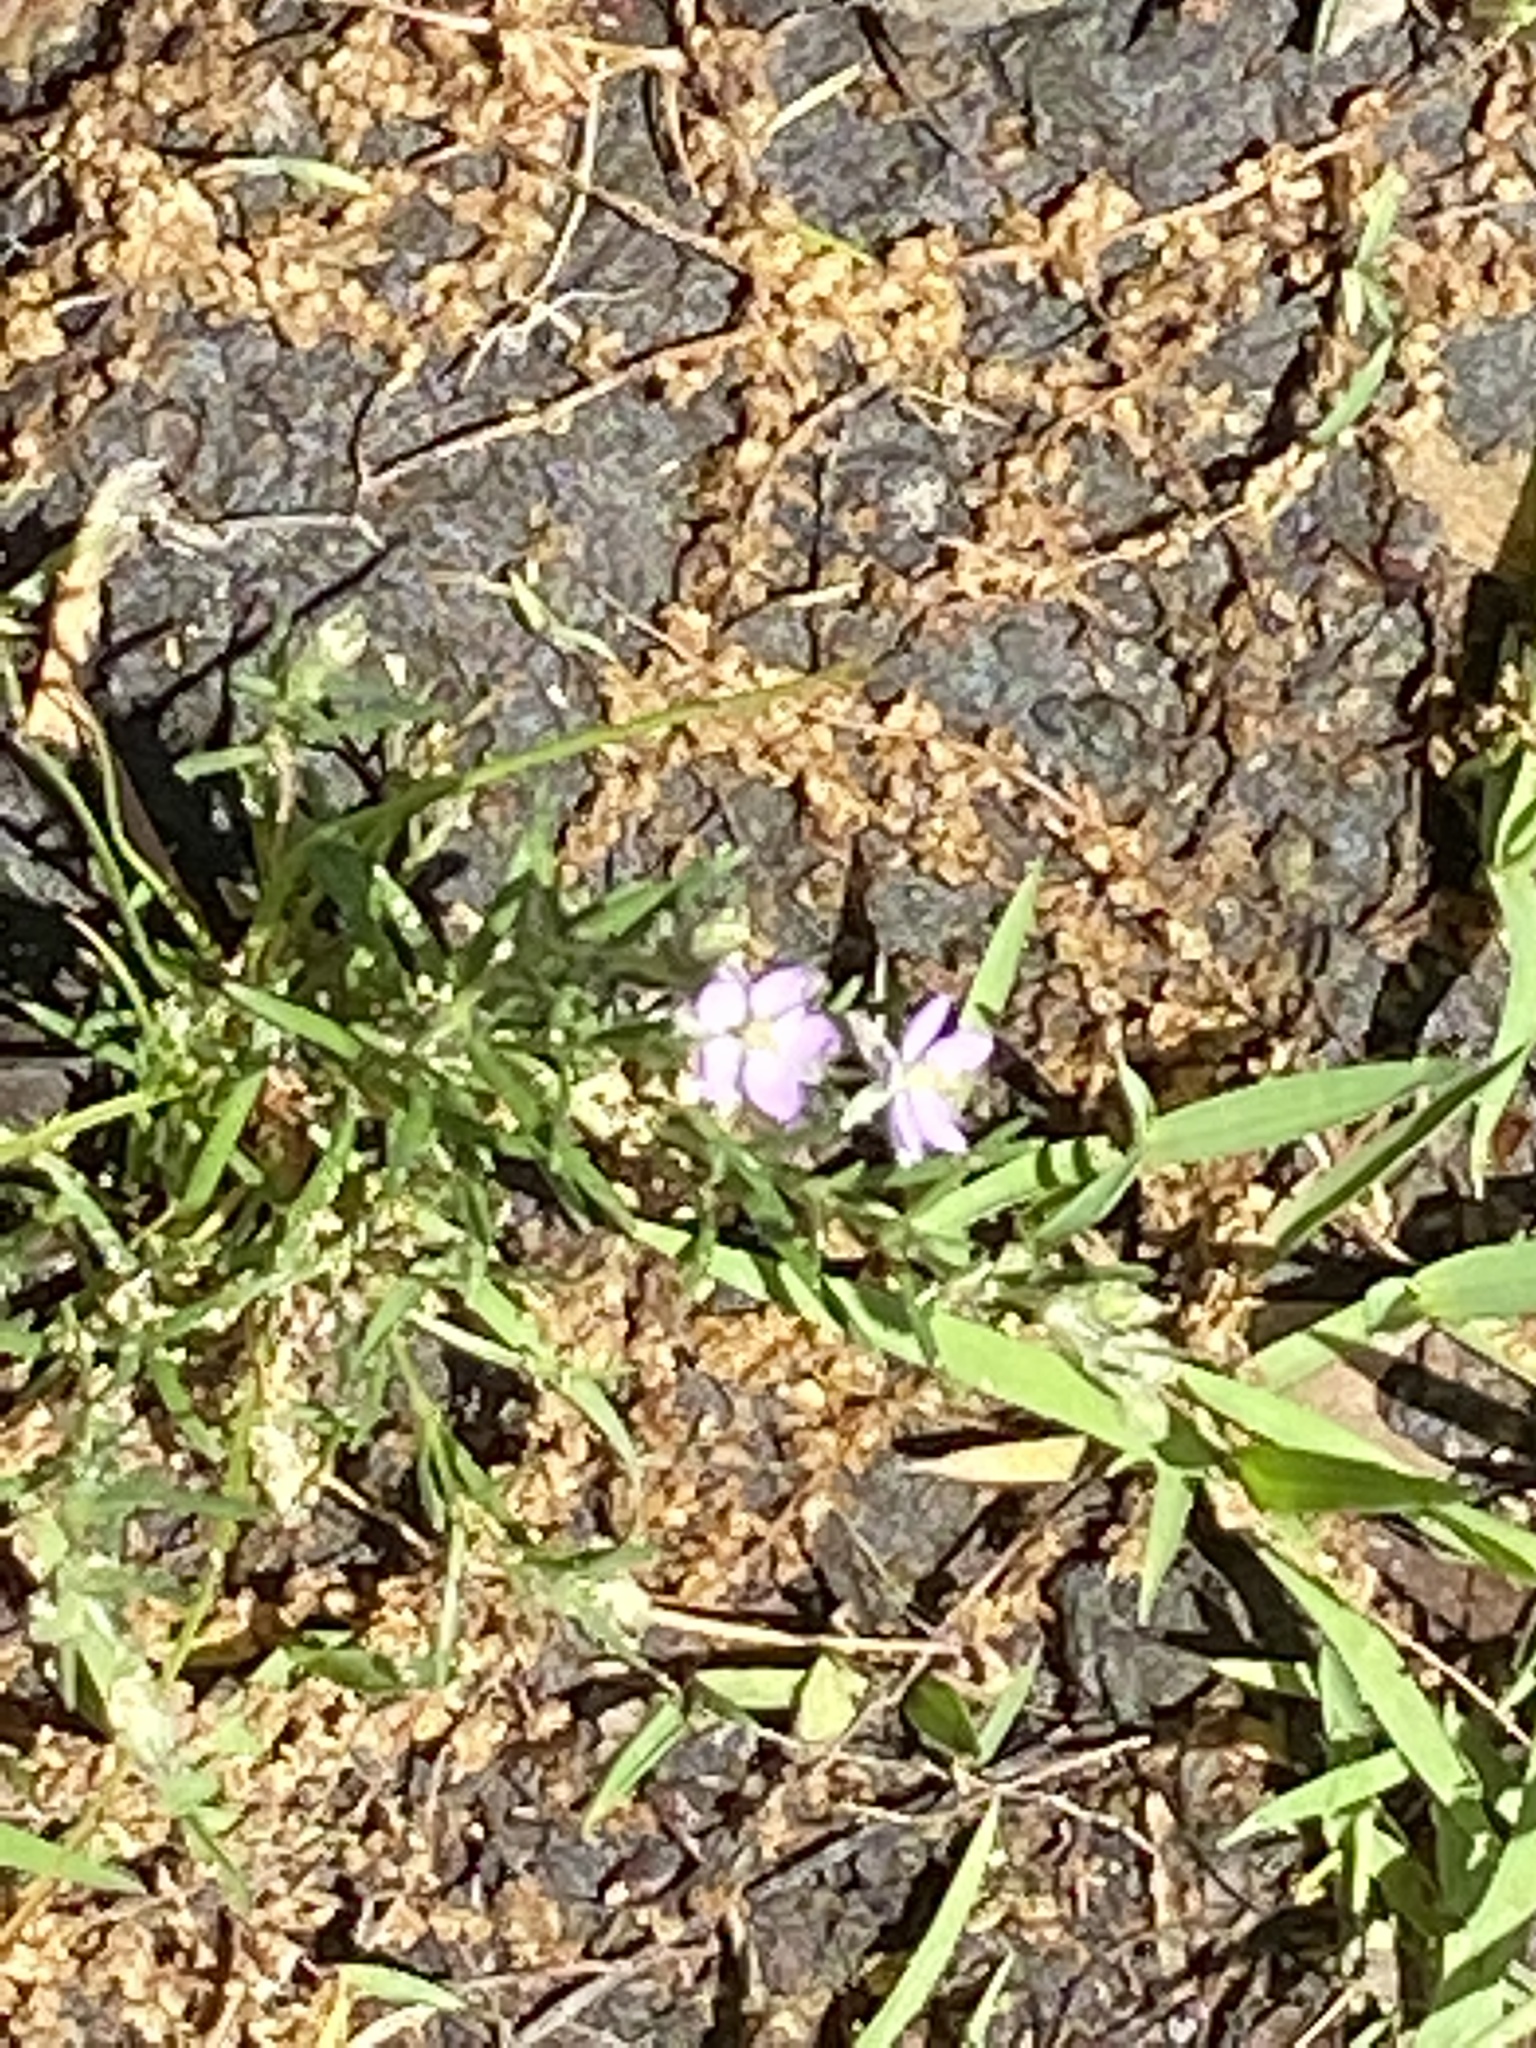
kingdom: Plantae
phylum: Tracheophyta
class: Magnoliopsida
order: Caryophyllales
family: Caryophyllaceae
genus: Spergularia
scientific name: Spergularia rubra
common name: Red sand-spurrey
